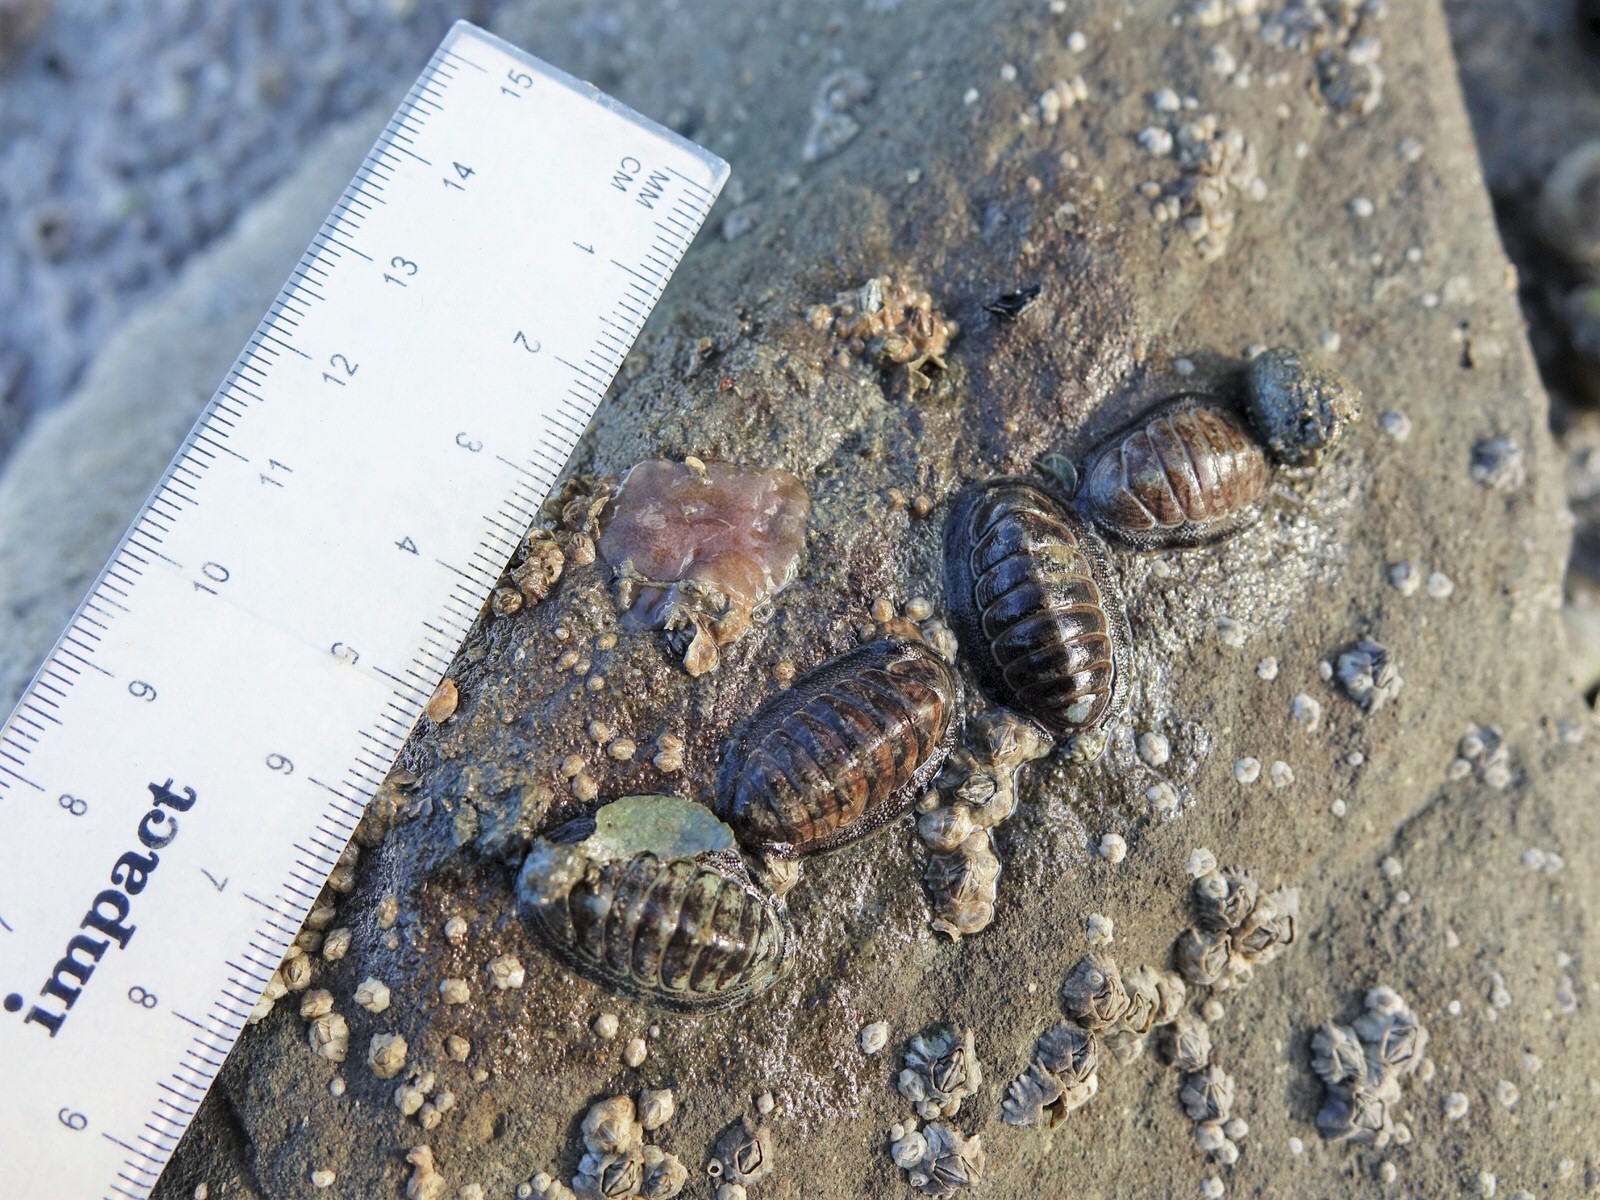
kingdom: Animalia
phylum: Mollusca
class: Polyplacophora
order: Chitonida
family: Chitonidae
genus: Chiton
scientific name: Chiton glaucus
